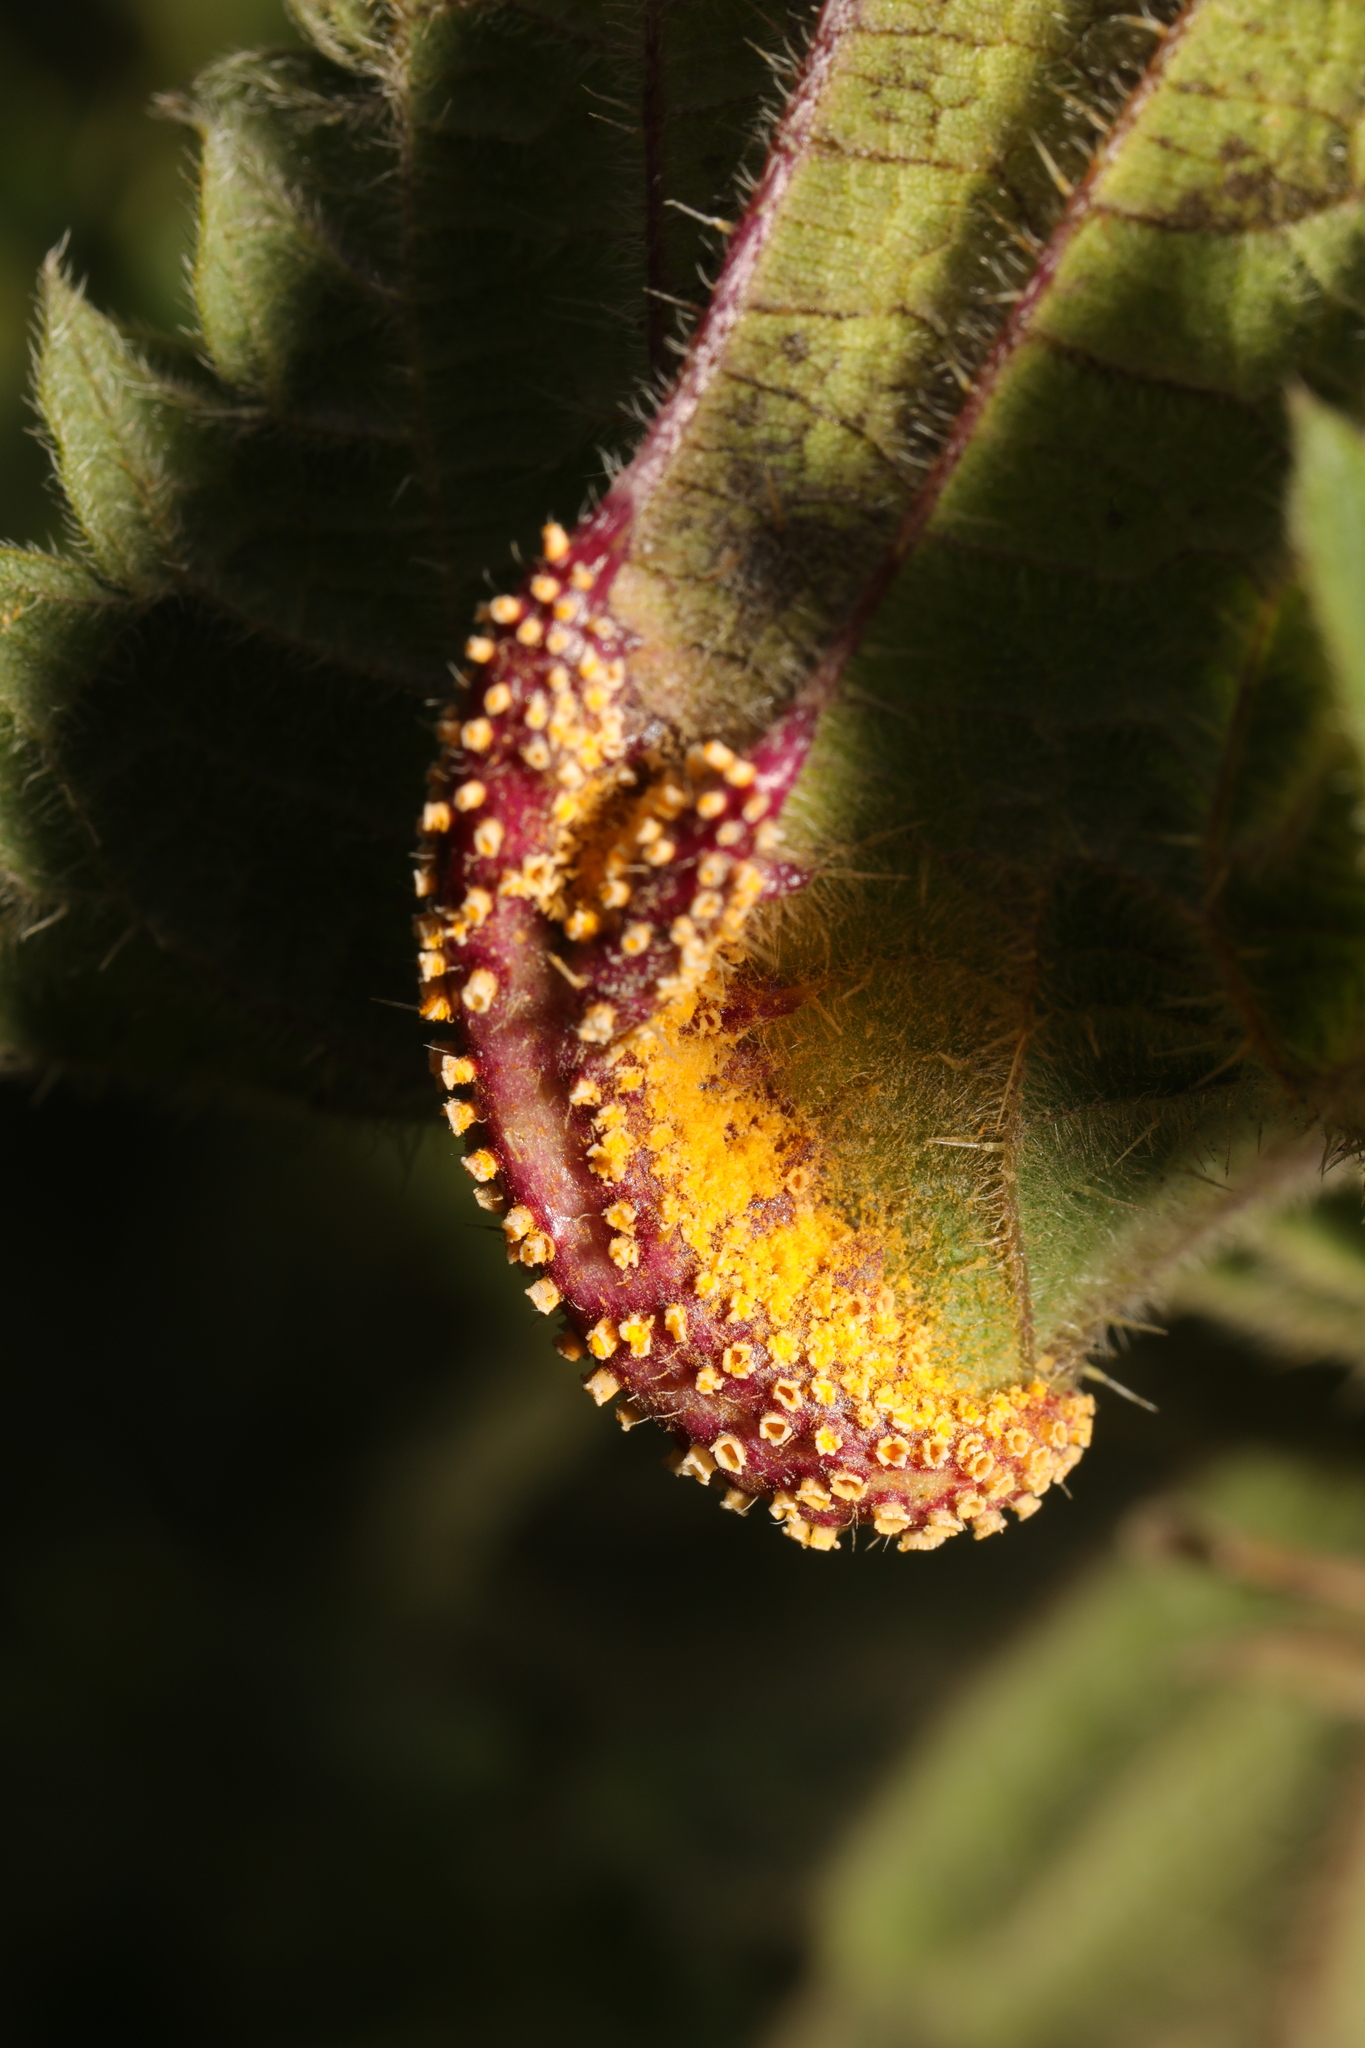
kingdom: Fungi
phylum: Basidiomycota
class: Pucciniomycetes
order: Pucciniales
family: Pucciniaceae
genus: Puccinia
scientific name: Puccinia urticata
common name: Nettle clustercup rust fungus
